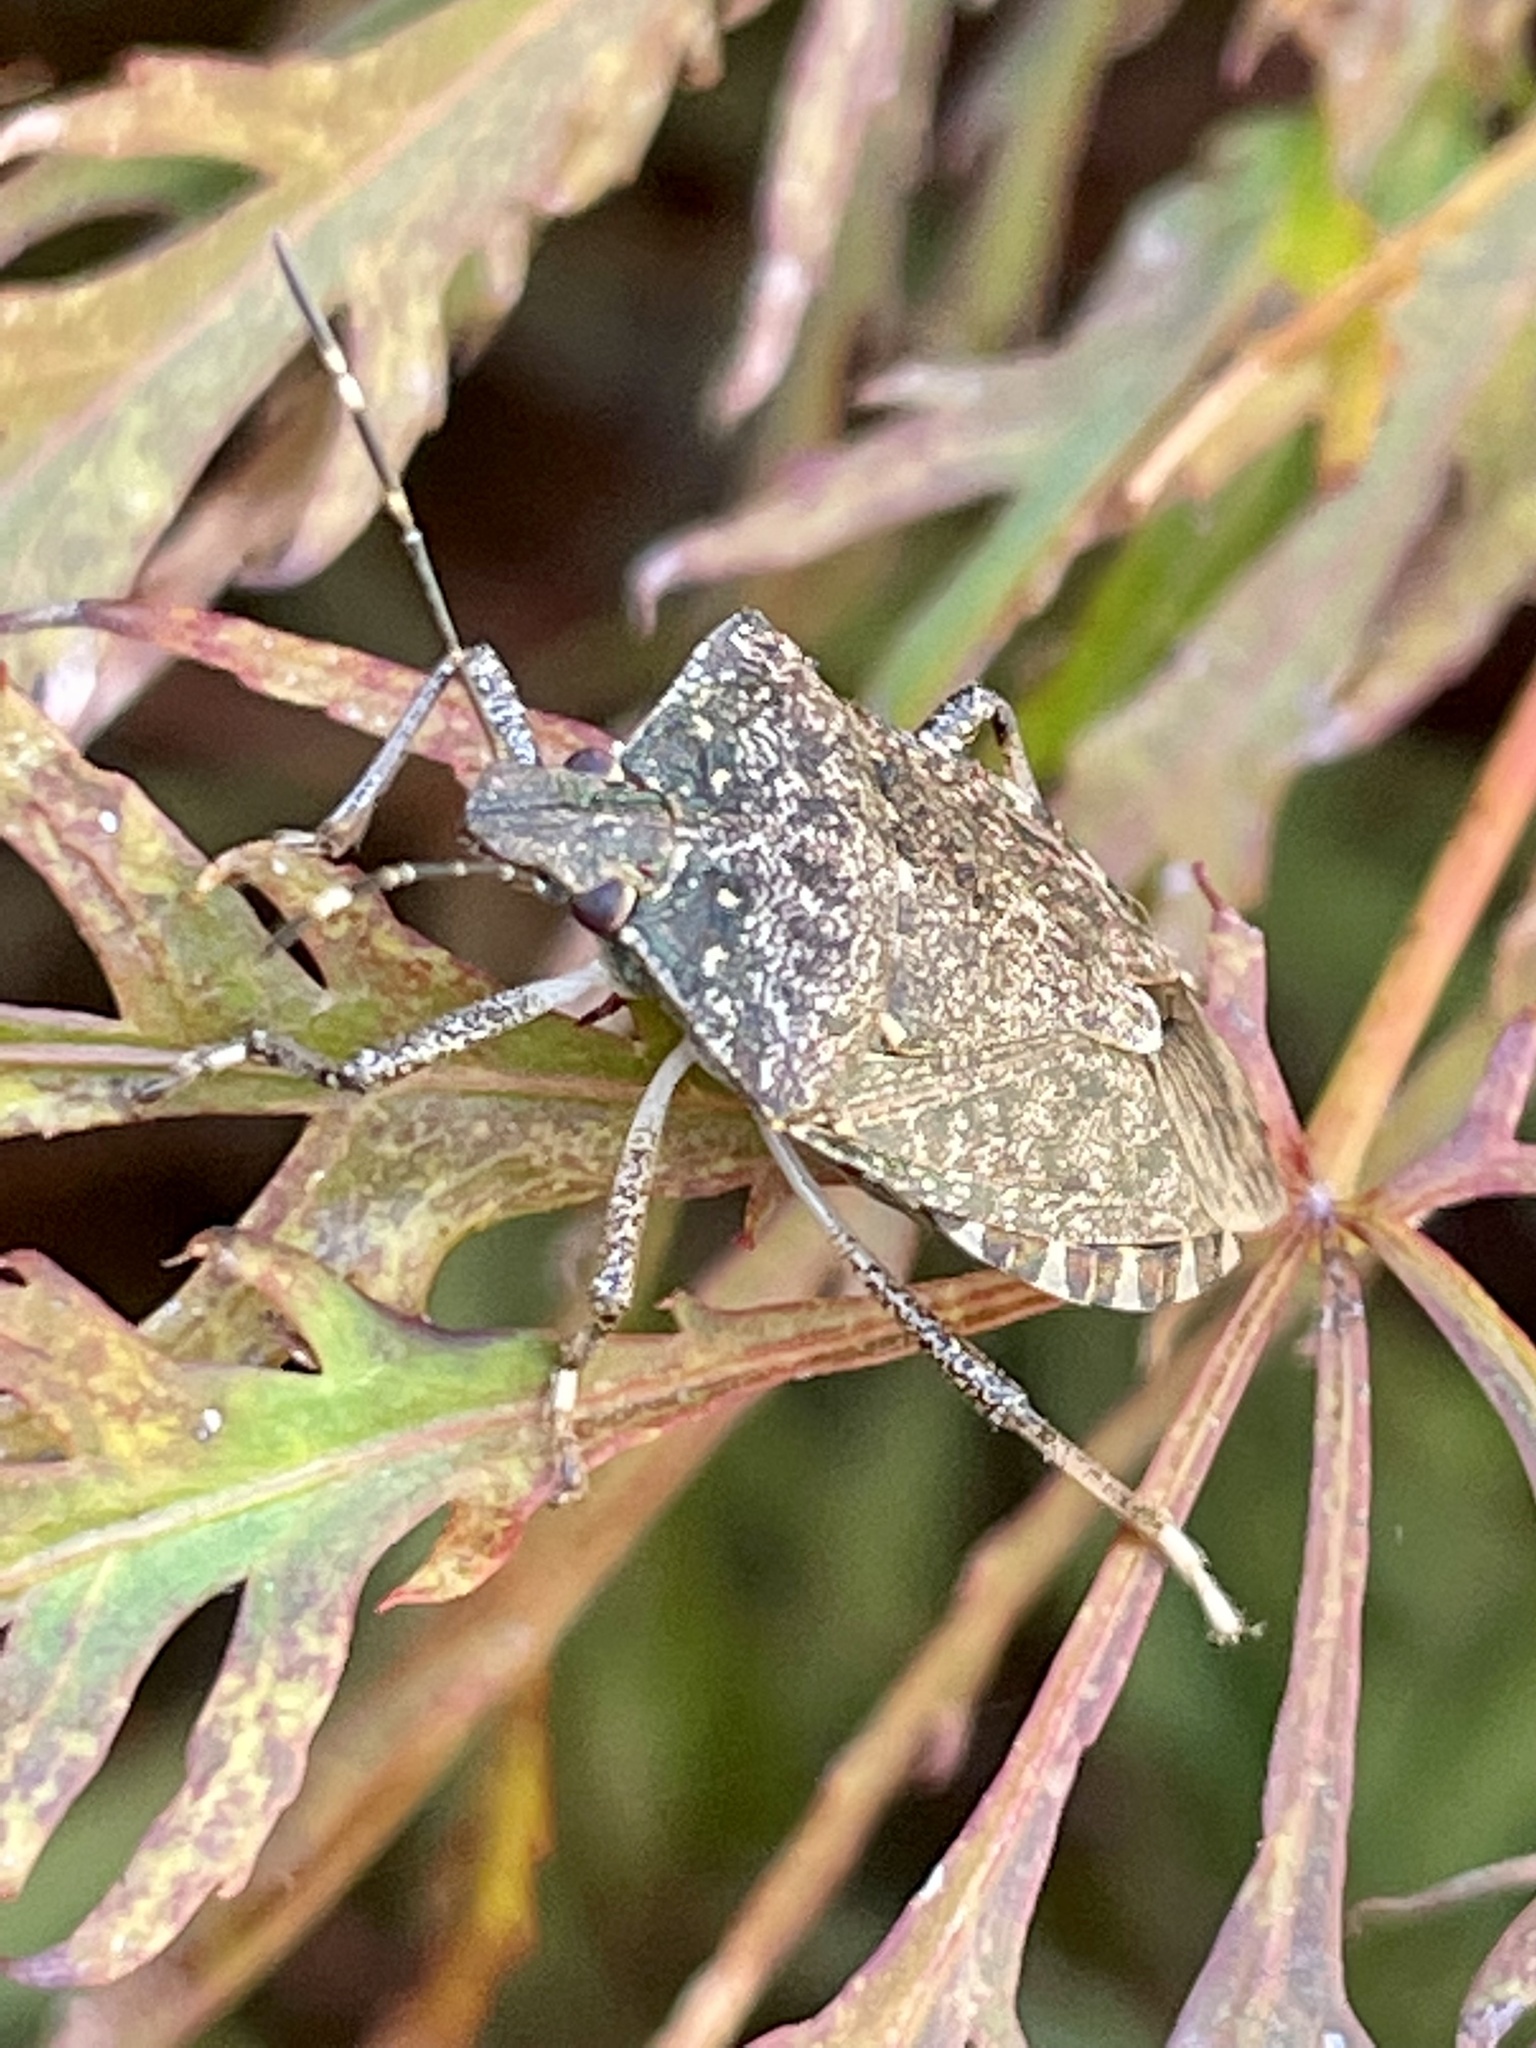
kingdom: Animalia
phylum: Arthropoda
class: Insecta
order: Hemiptera
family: Pentatomidae
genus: Halyomorpha
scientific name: Halyomorpha halys
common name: Brown marmorated stink bug
